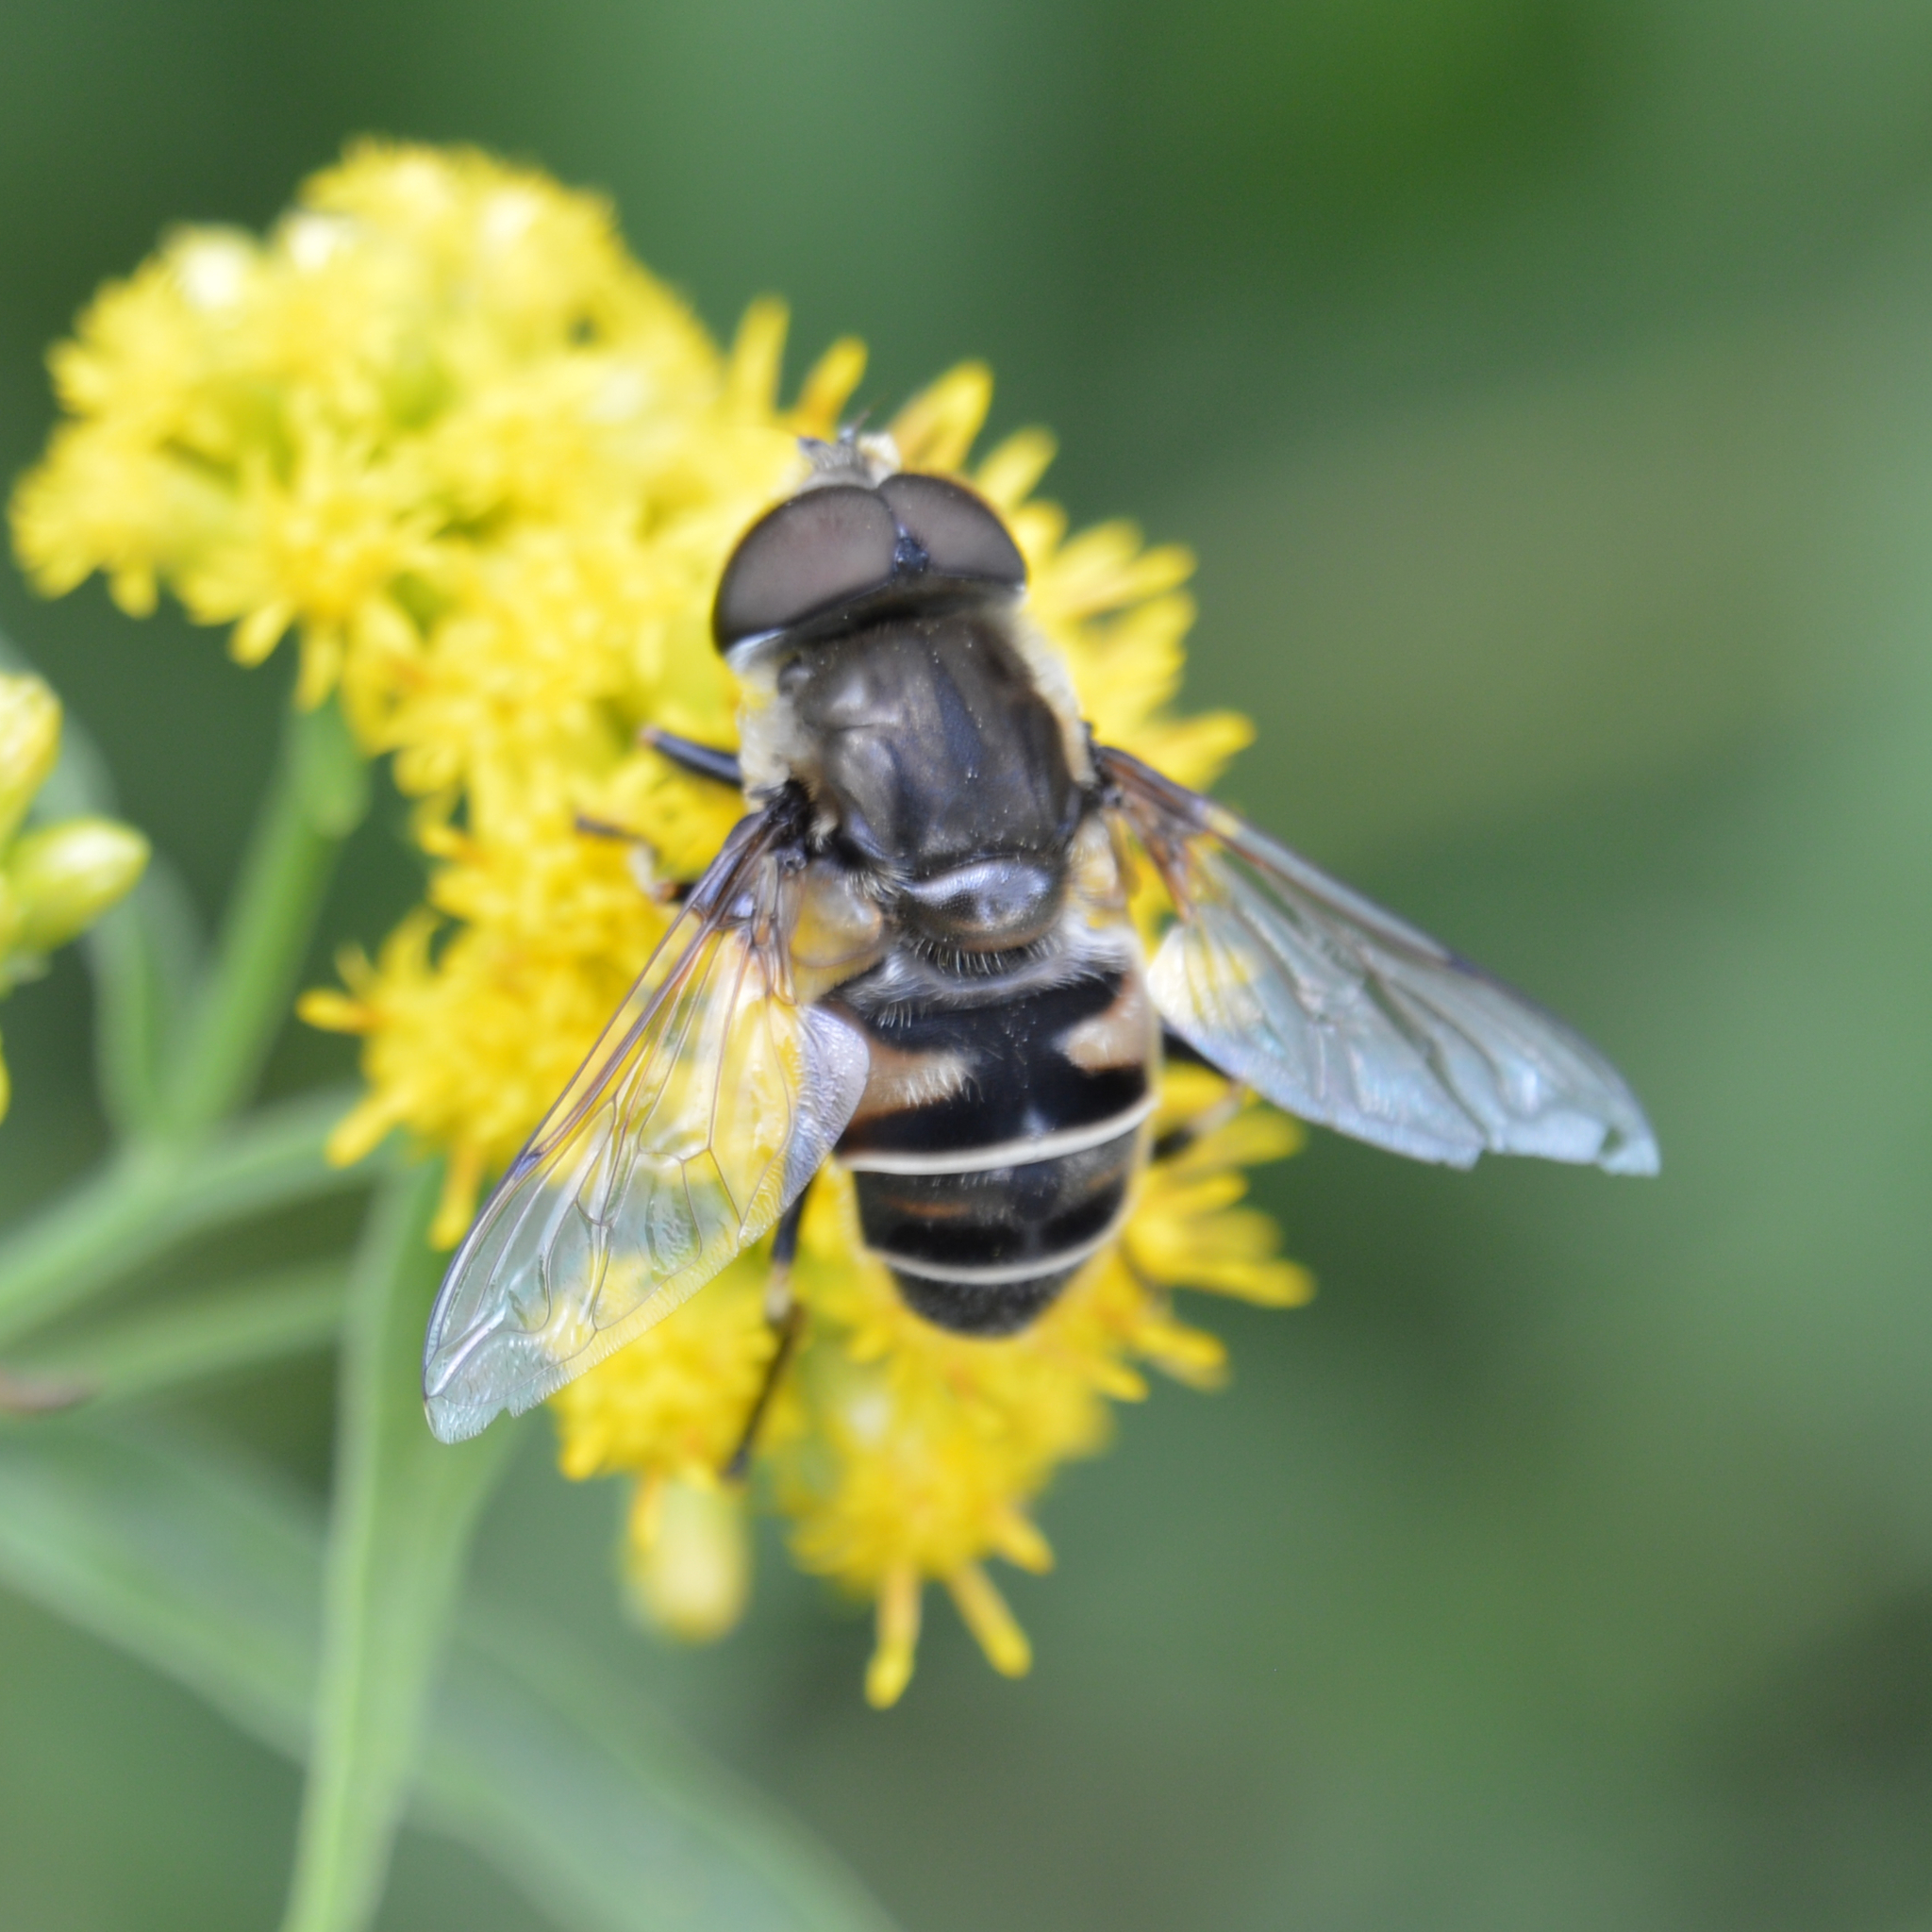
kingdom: Animalia
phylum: Arthropoda
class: Insecta
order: Diptera
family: Syrphidae
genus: Eristalis
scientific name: Eristalis dimidiata
